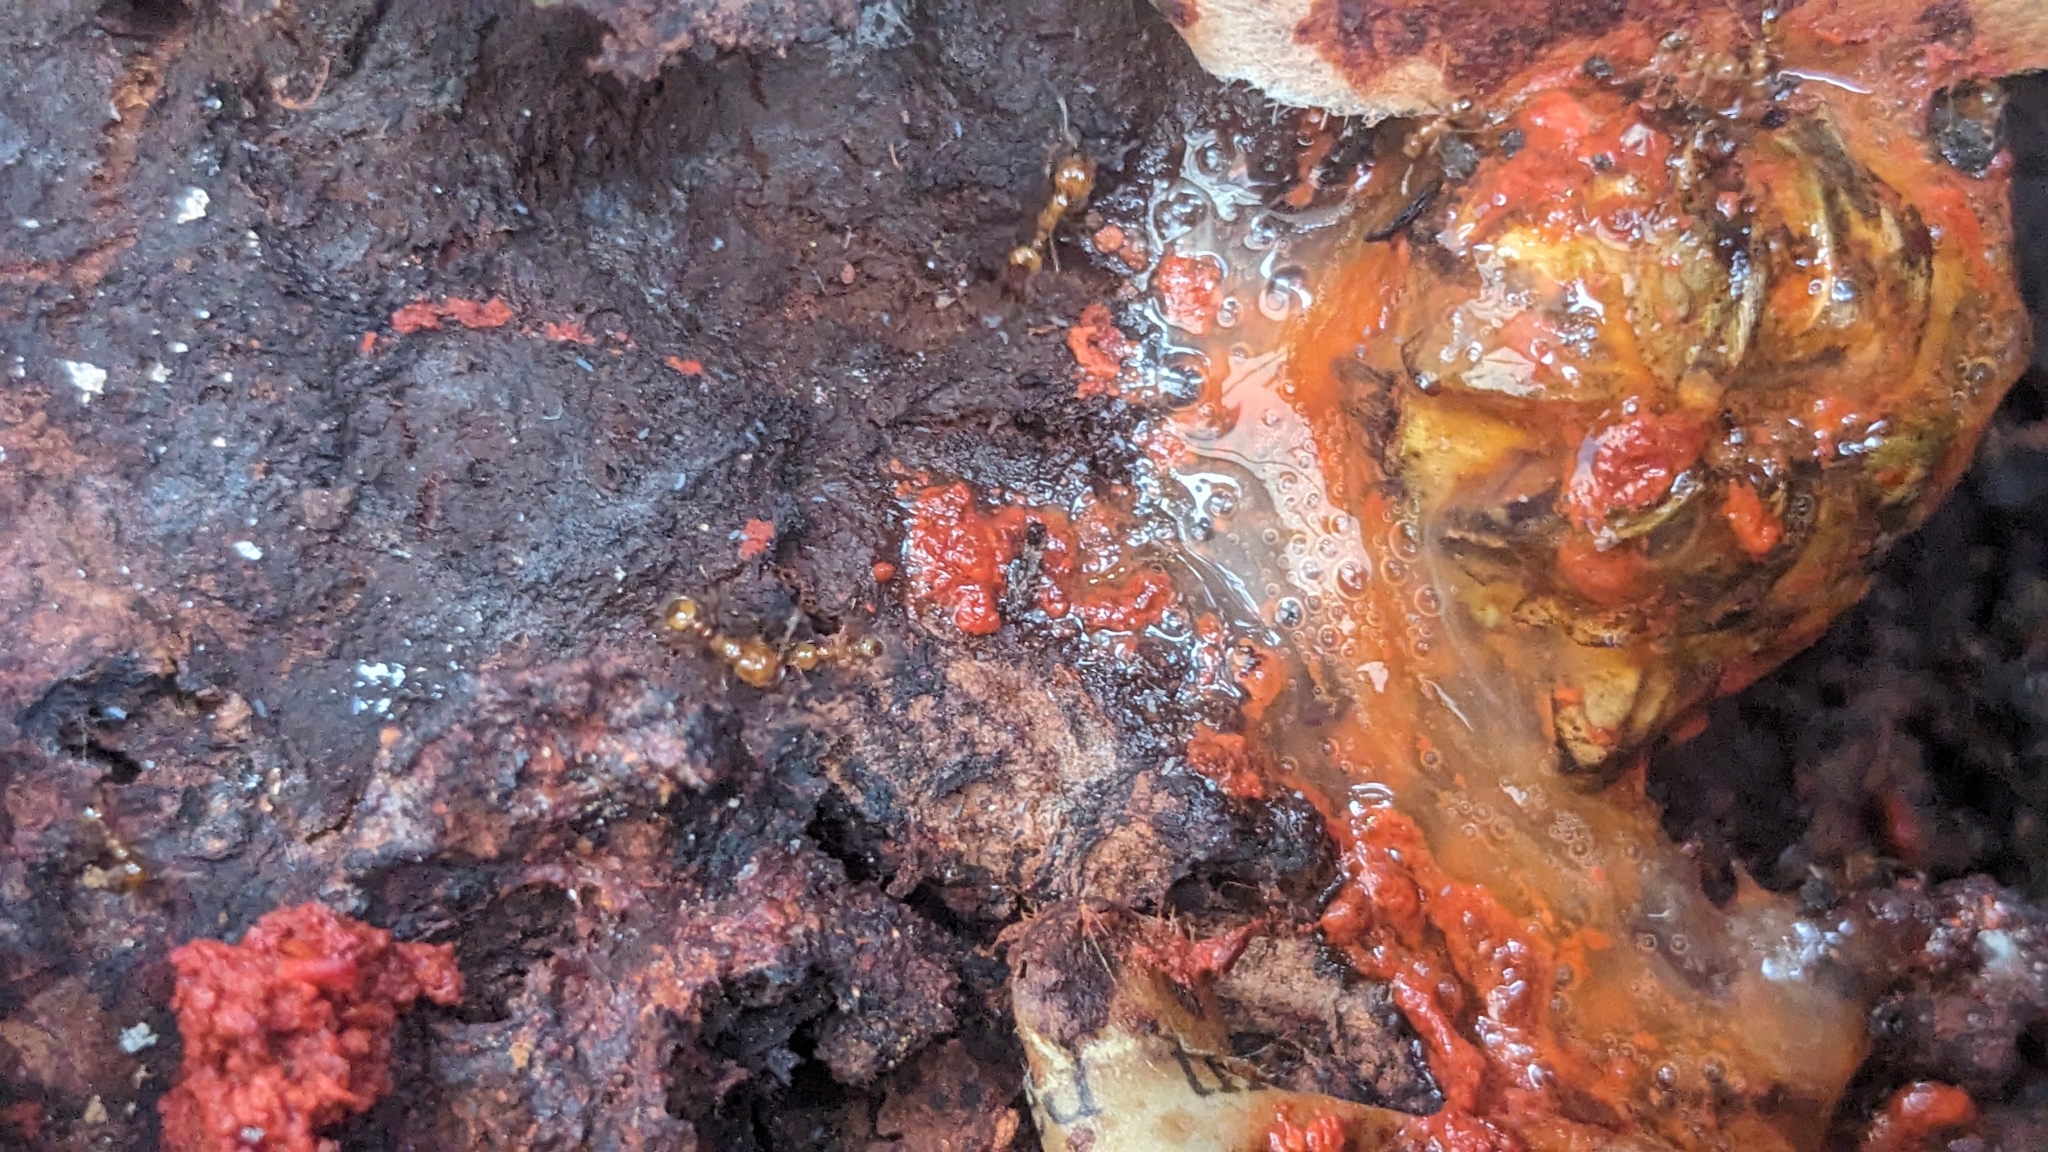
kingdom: Animalia
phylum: Arthropoda
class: Insecta
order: Hymenoptera
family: Formicidae
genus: Solenopsis
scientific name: Solenopsis geminata
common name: Tropical fire ant
